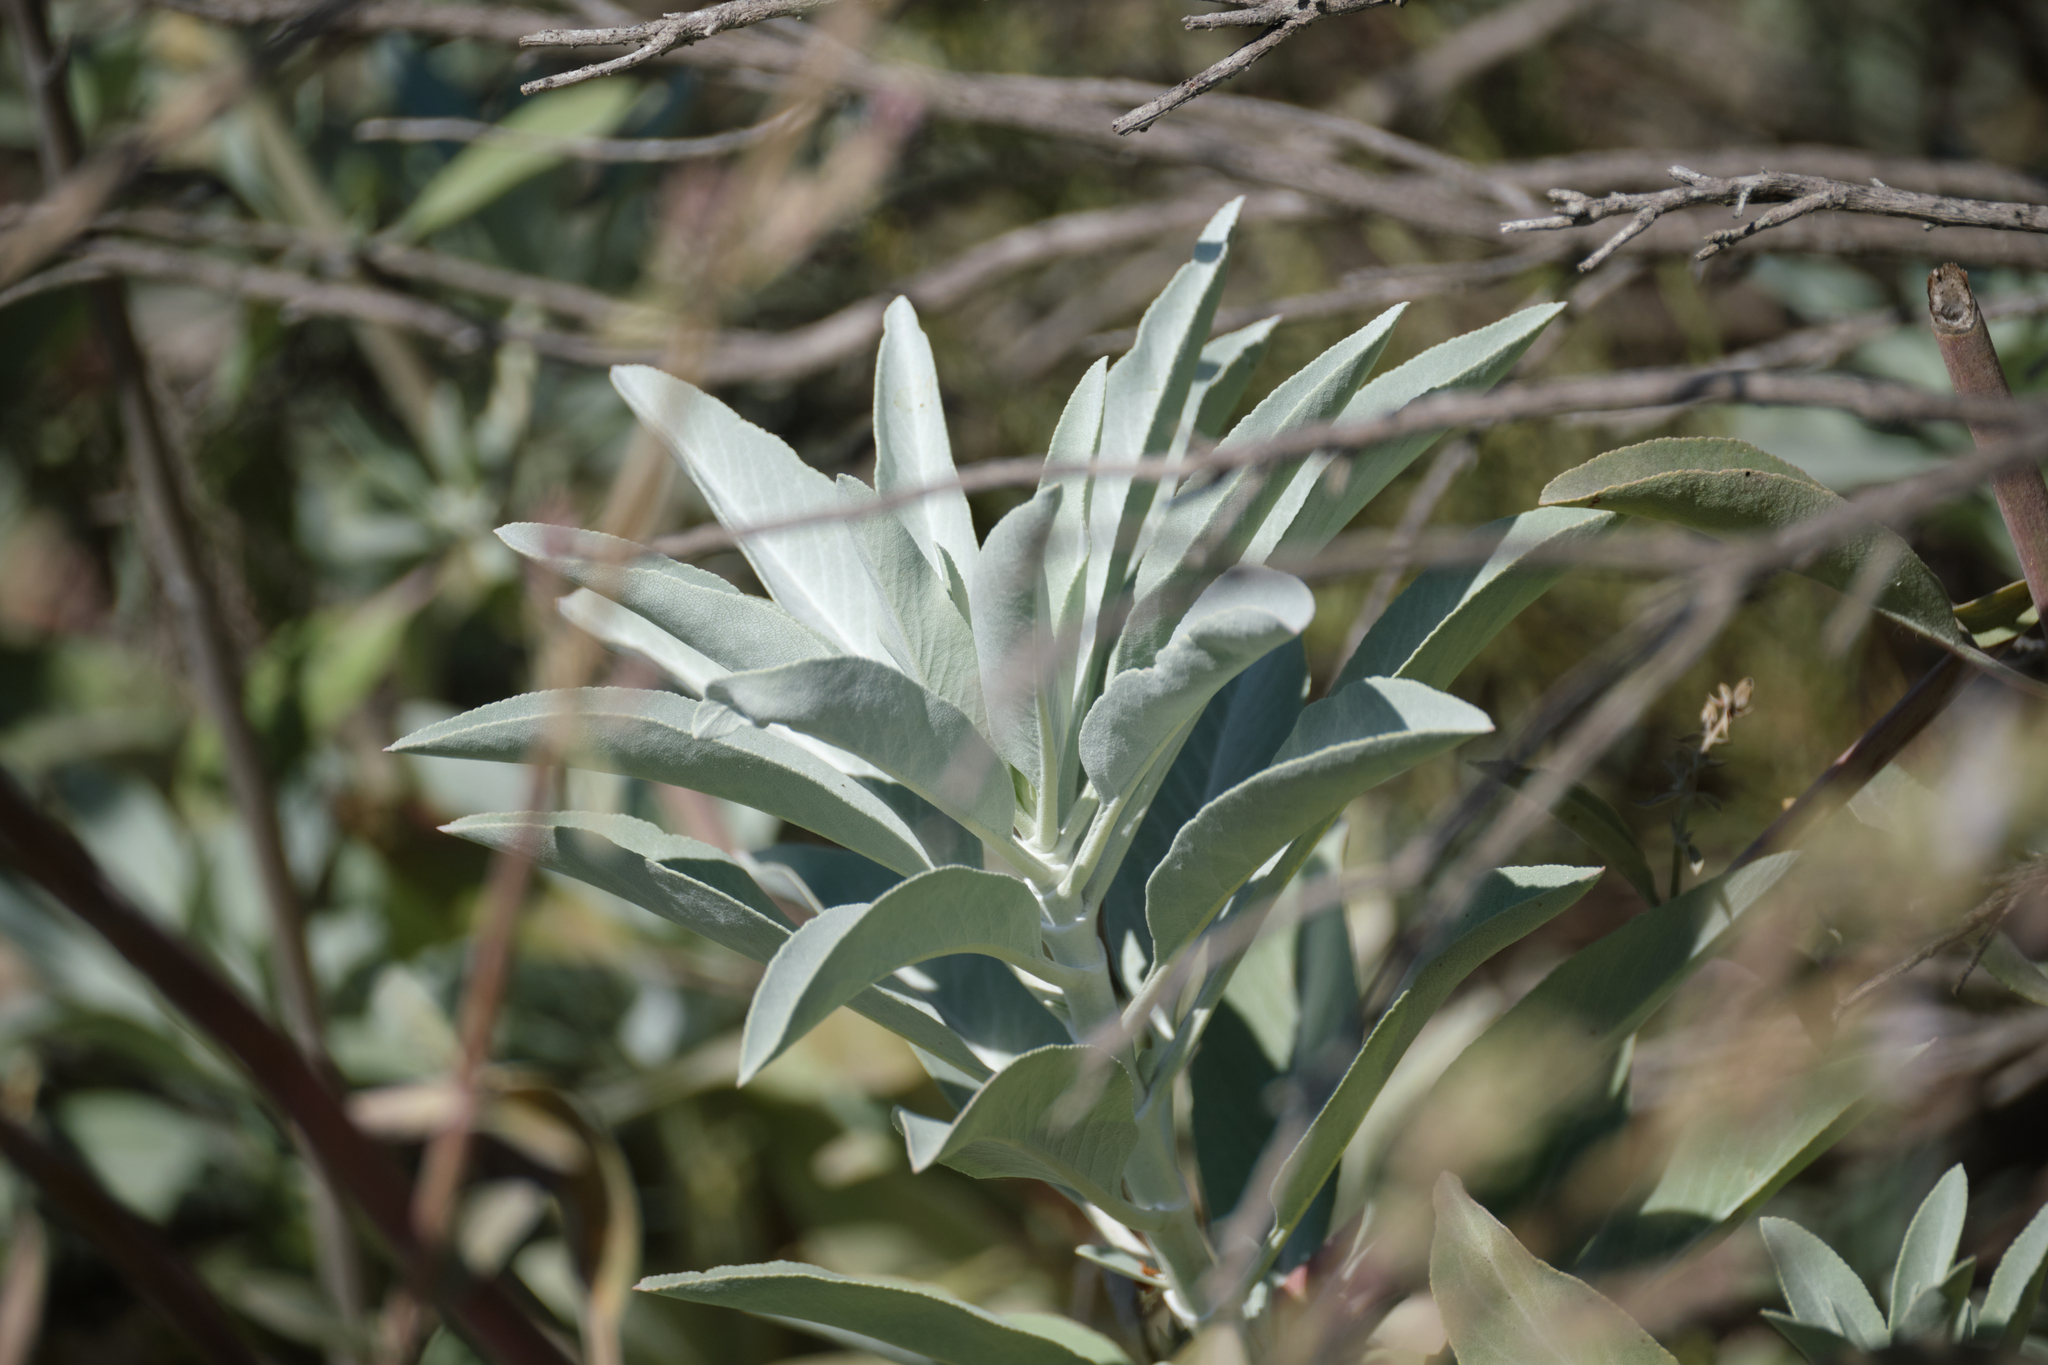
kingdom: Plantae
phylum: Tracheophyta
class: Magnoliopsida
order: Lamiales
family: Lamiaceae
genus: Salvia
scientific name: Salvia apiana
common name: White sage
